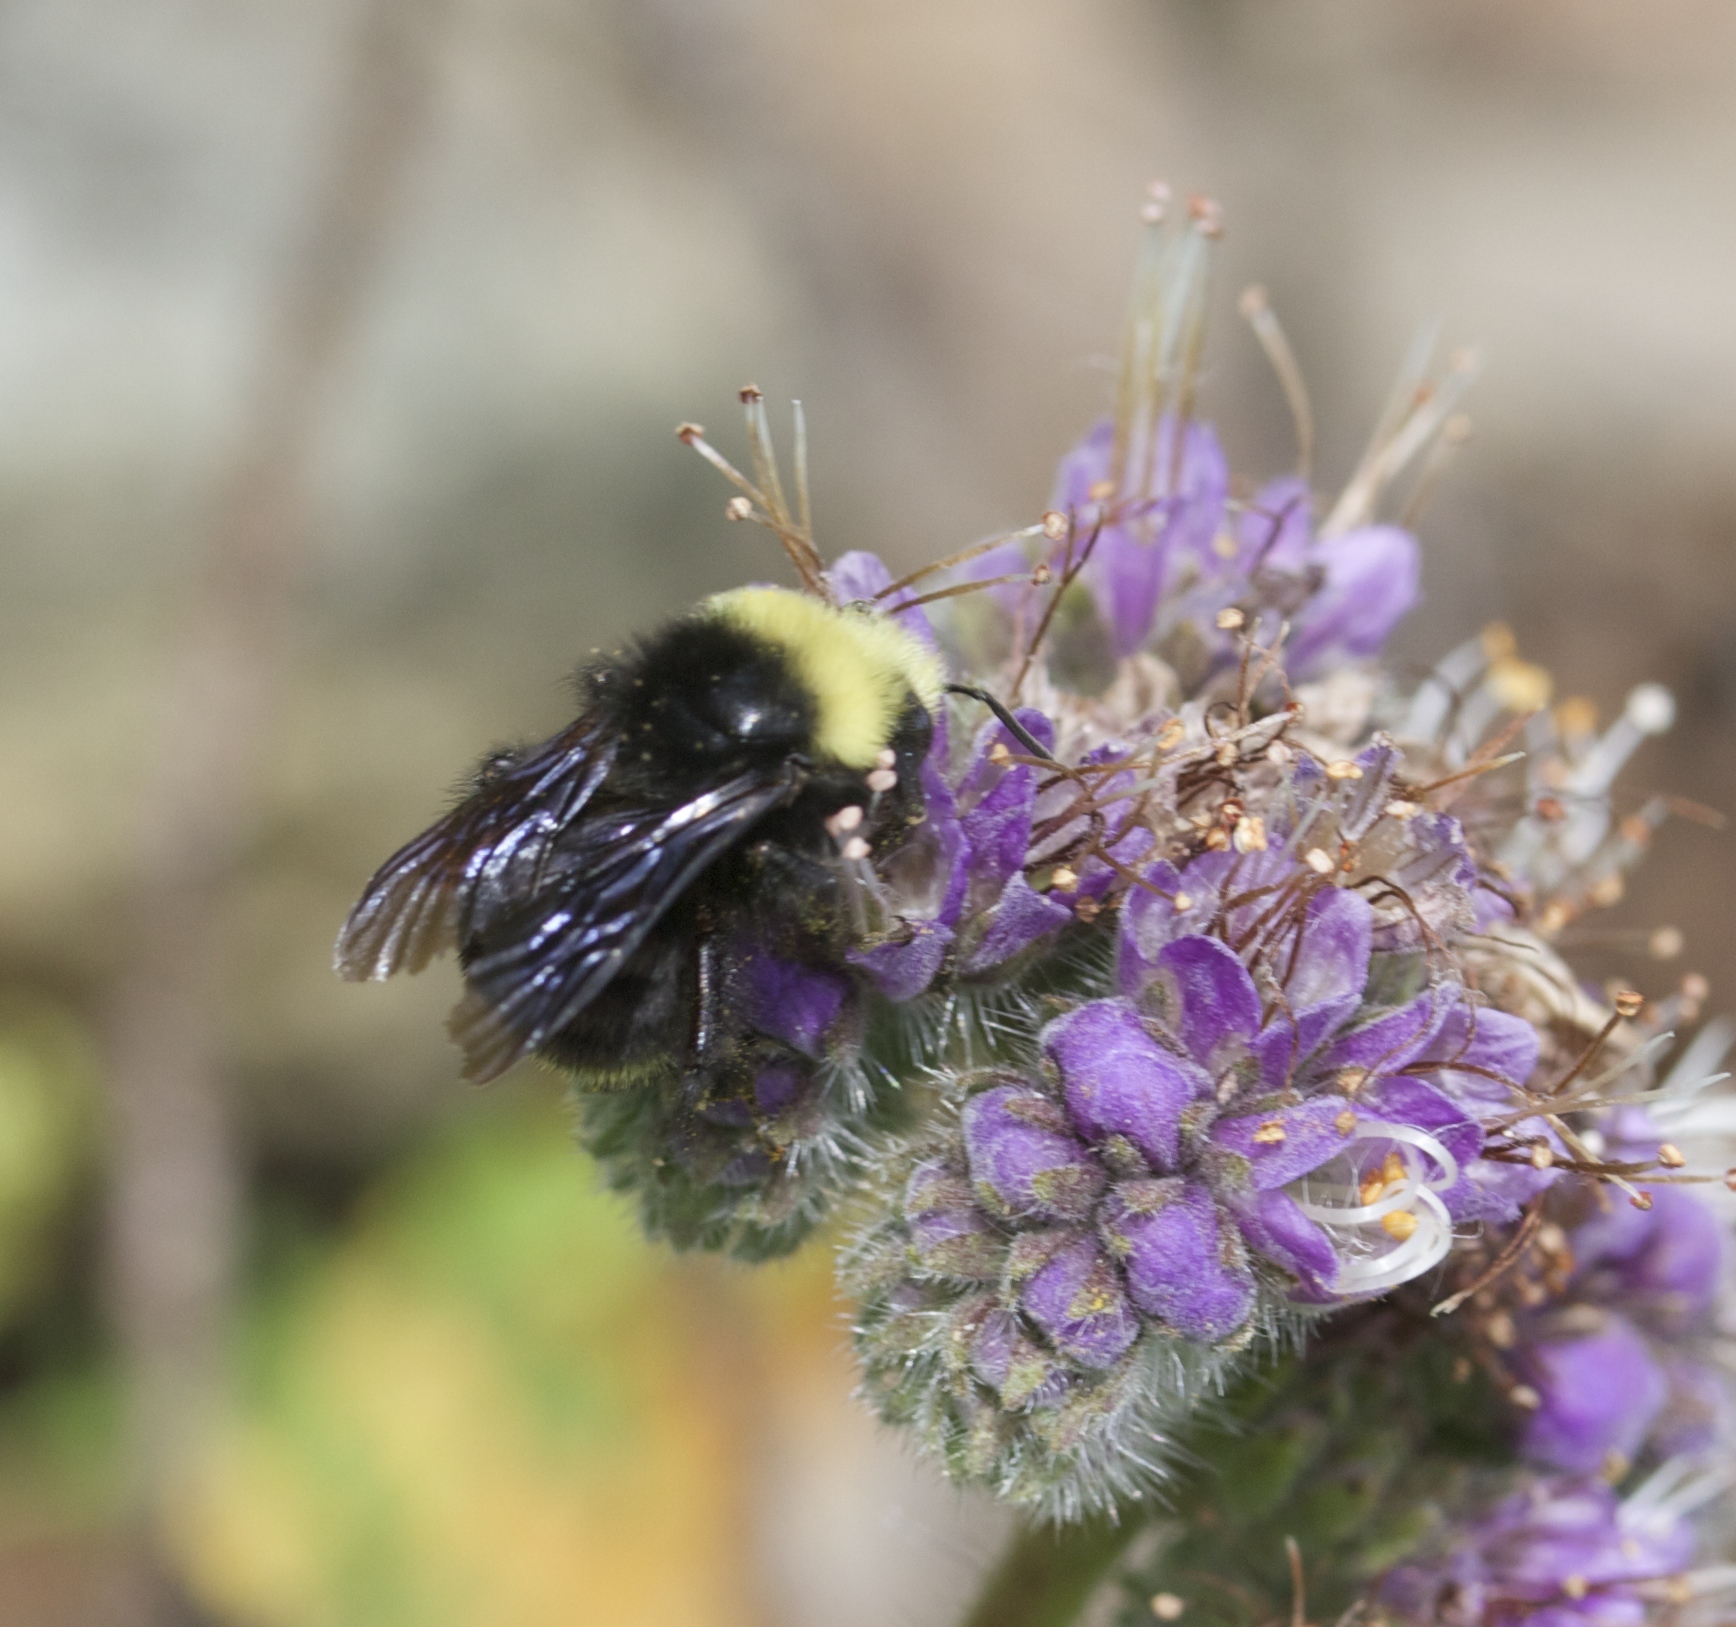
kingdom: Animalia
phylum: Arthropoda
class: Insecta
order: Hymenoptera
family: Apidae
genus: Bombus
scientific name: Bombus vosnesenskii
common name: Vosnesensky bumble bee
